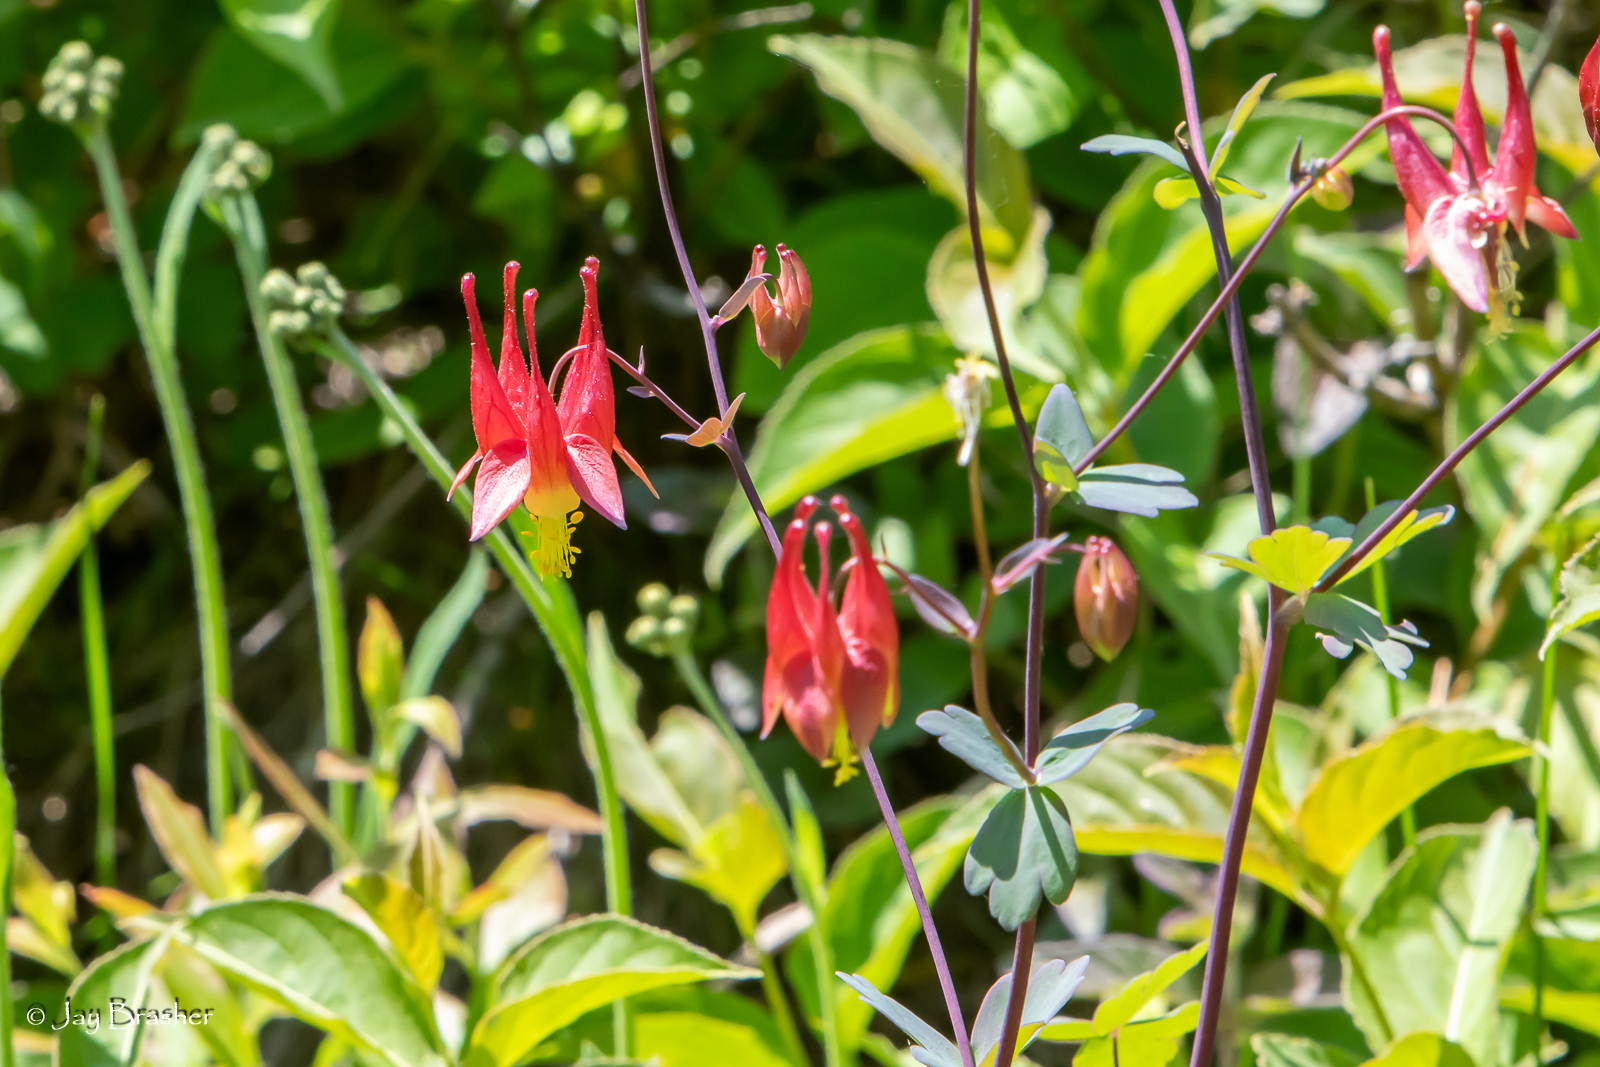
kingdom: Plantae
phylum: Tracheophyta
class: Magnoliopsida
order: Ranunculales
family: Ranunculaceae
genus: Aquilegia
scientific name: Aquilegia canadensis
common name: American columbine
